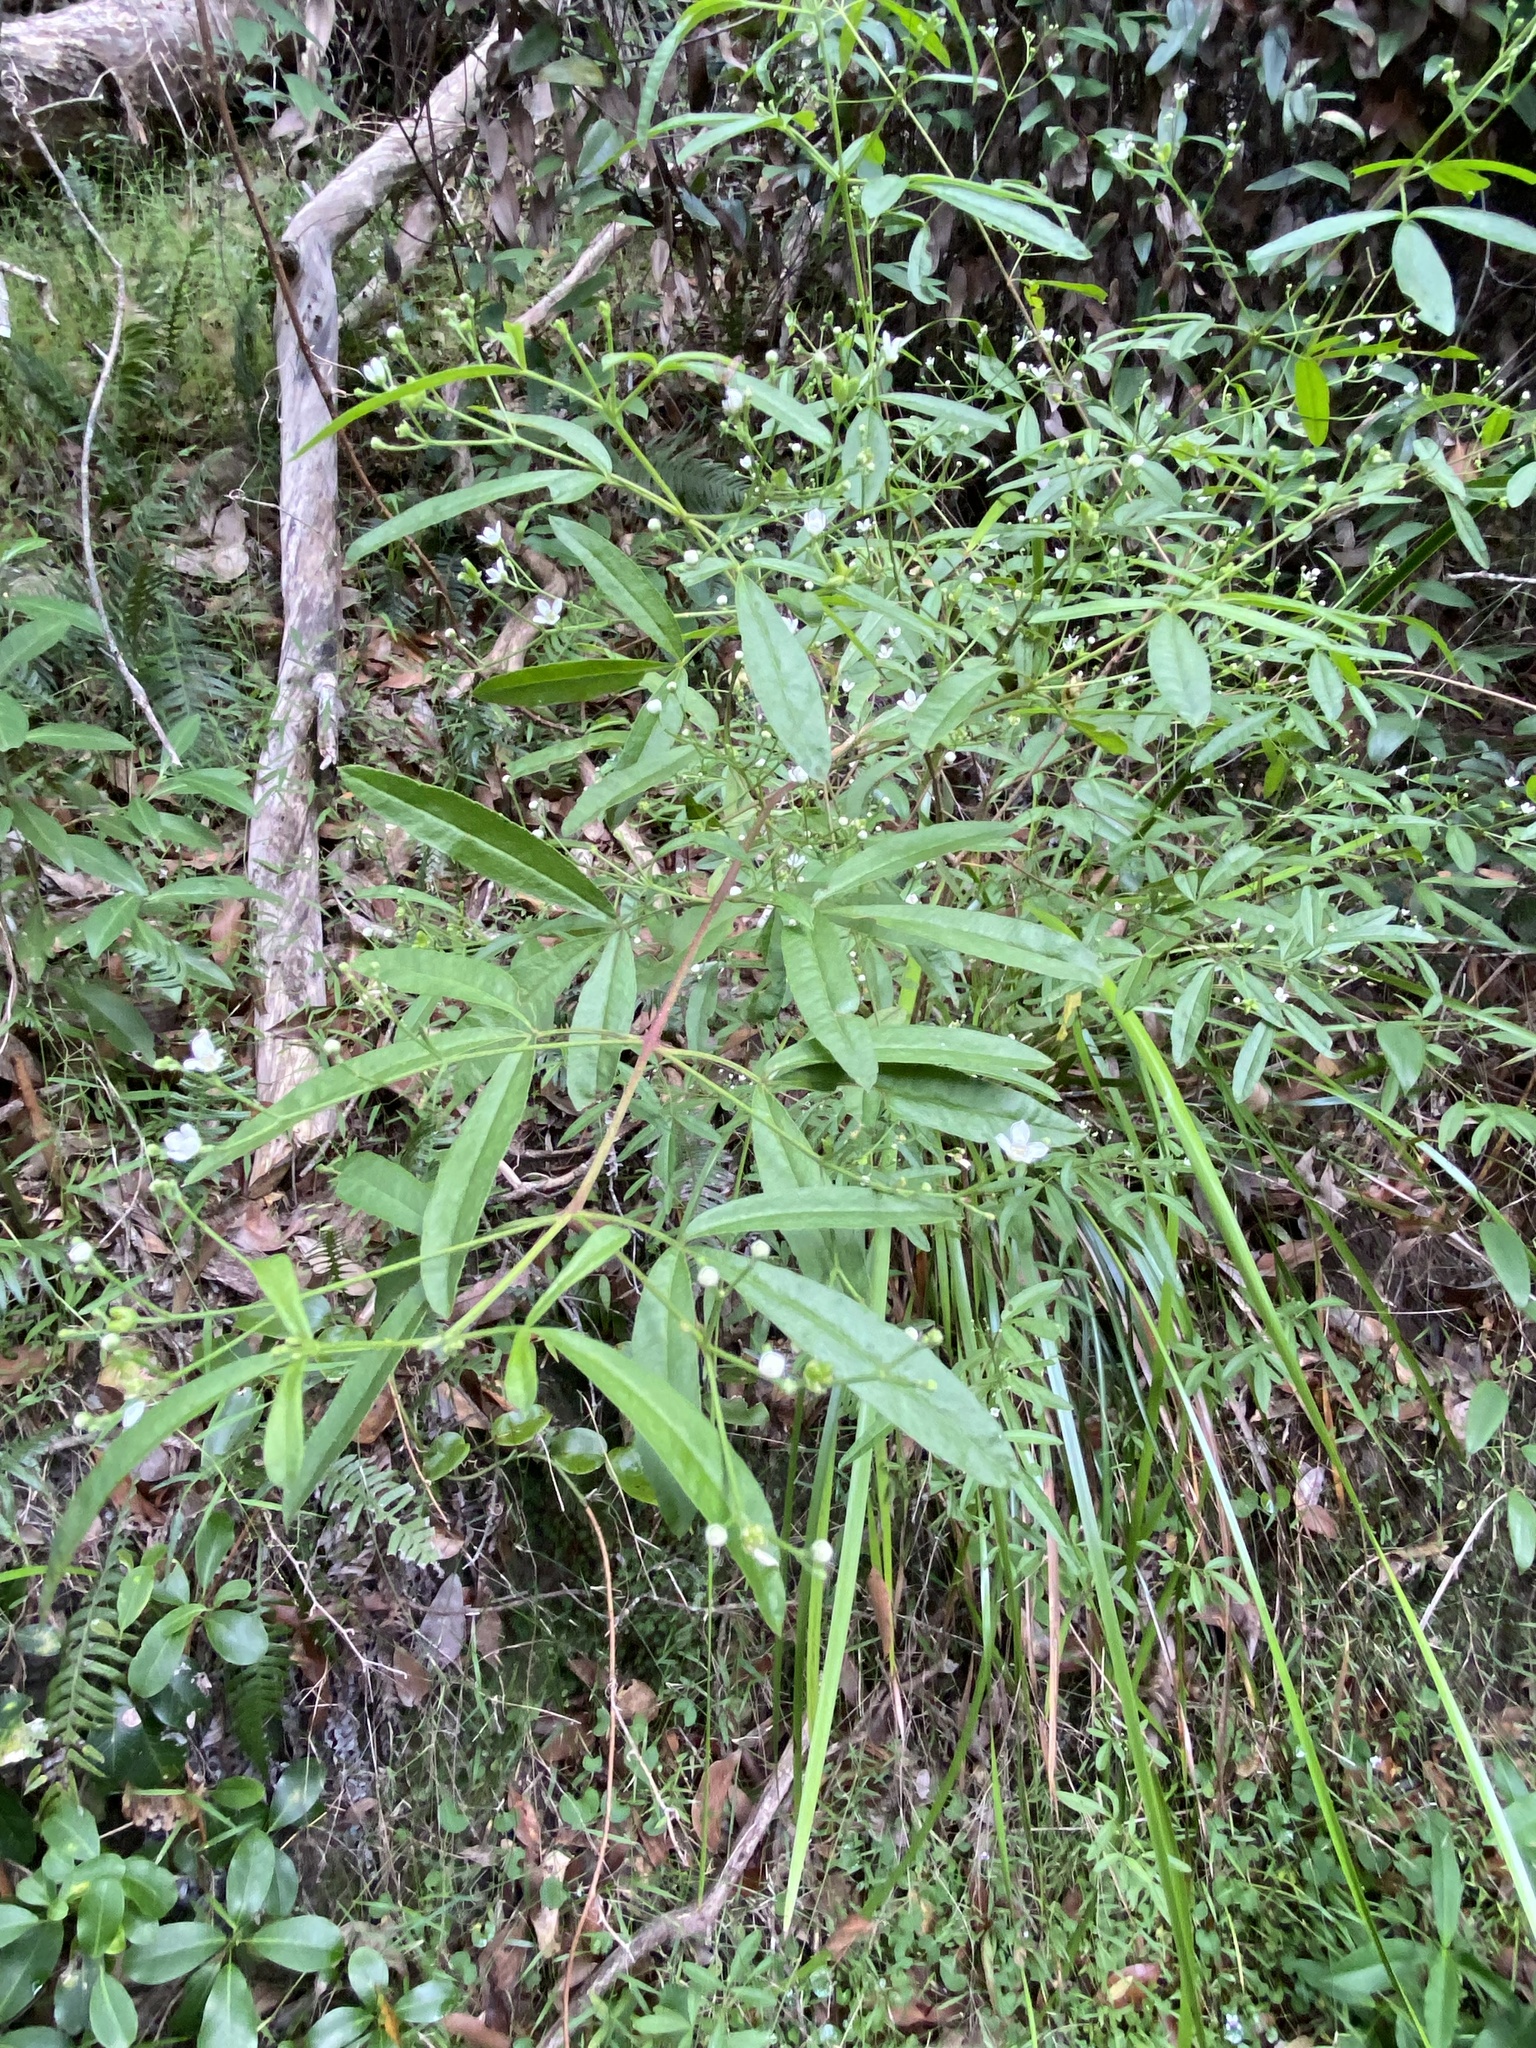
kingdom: Plantae
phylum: Tracheophyta
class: Magnoliopsida
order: Sapindales
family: Rutaceae
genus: Zieria
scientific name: Zieria smithii
